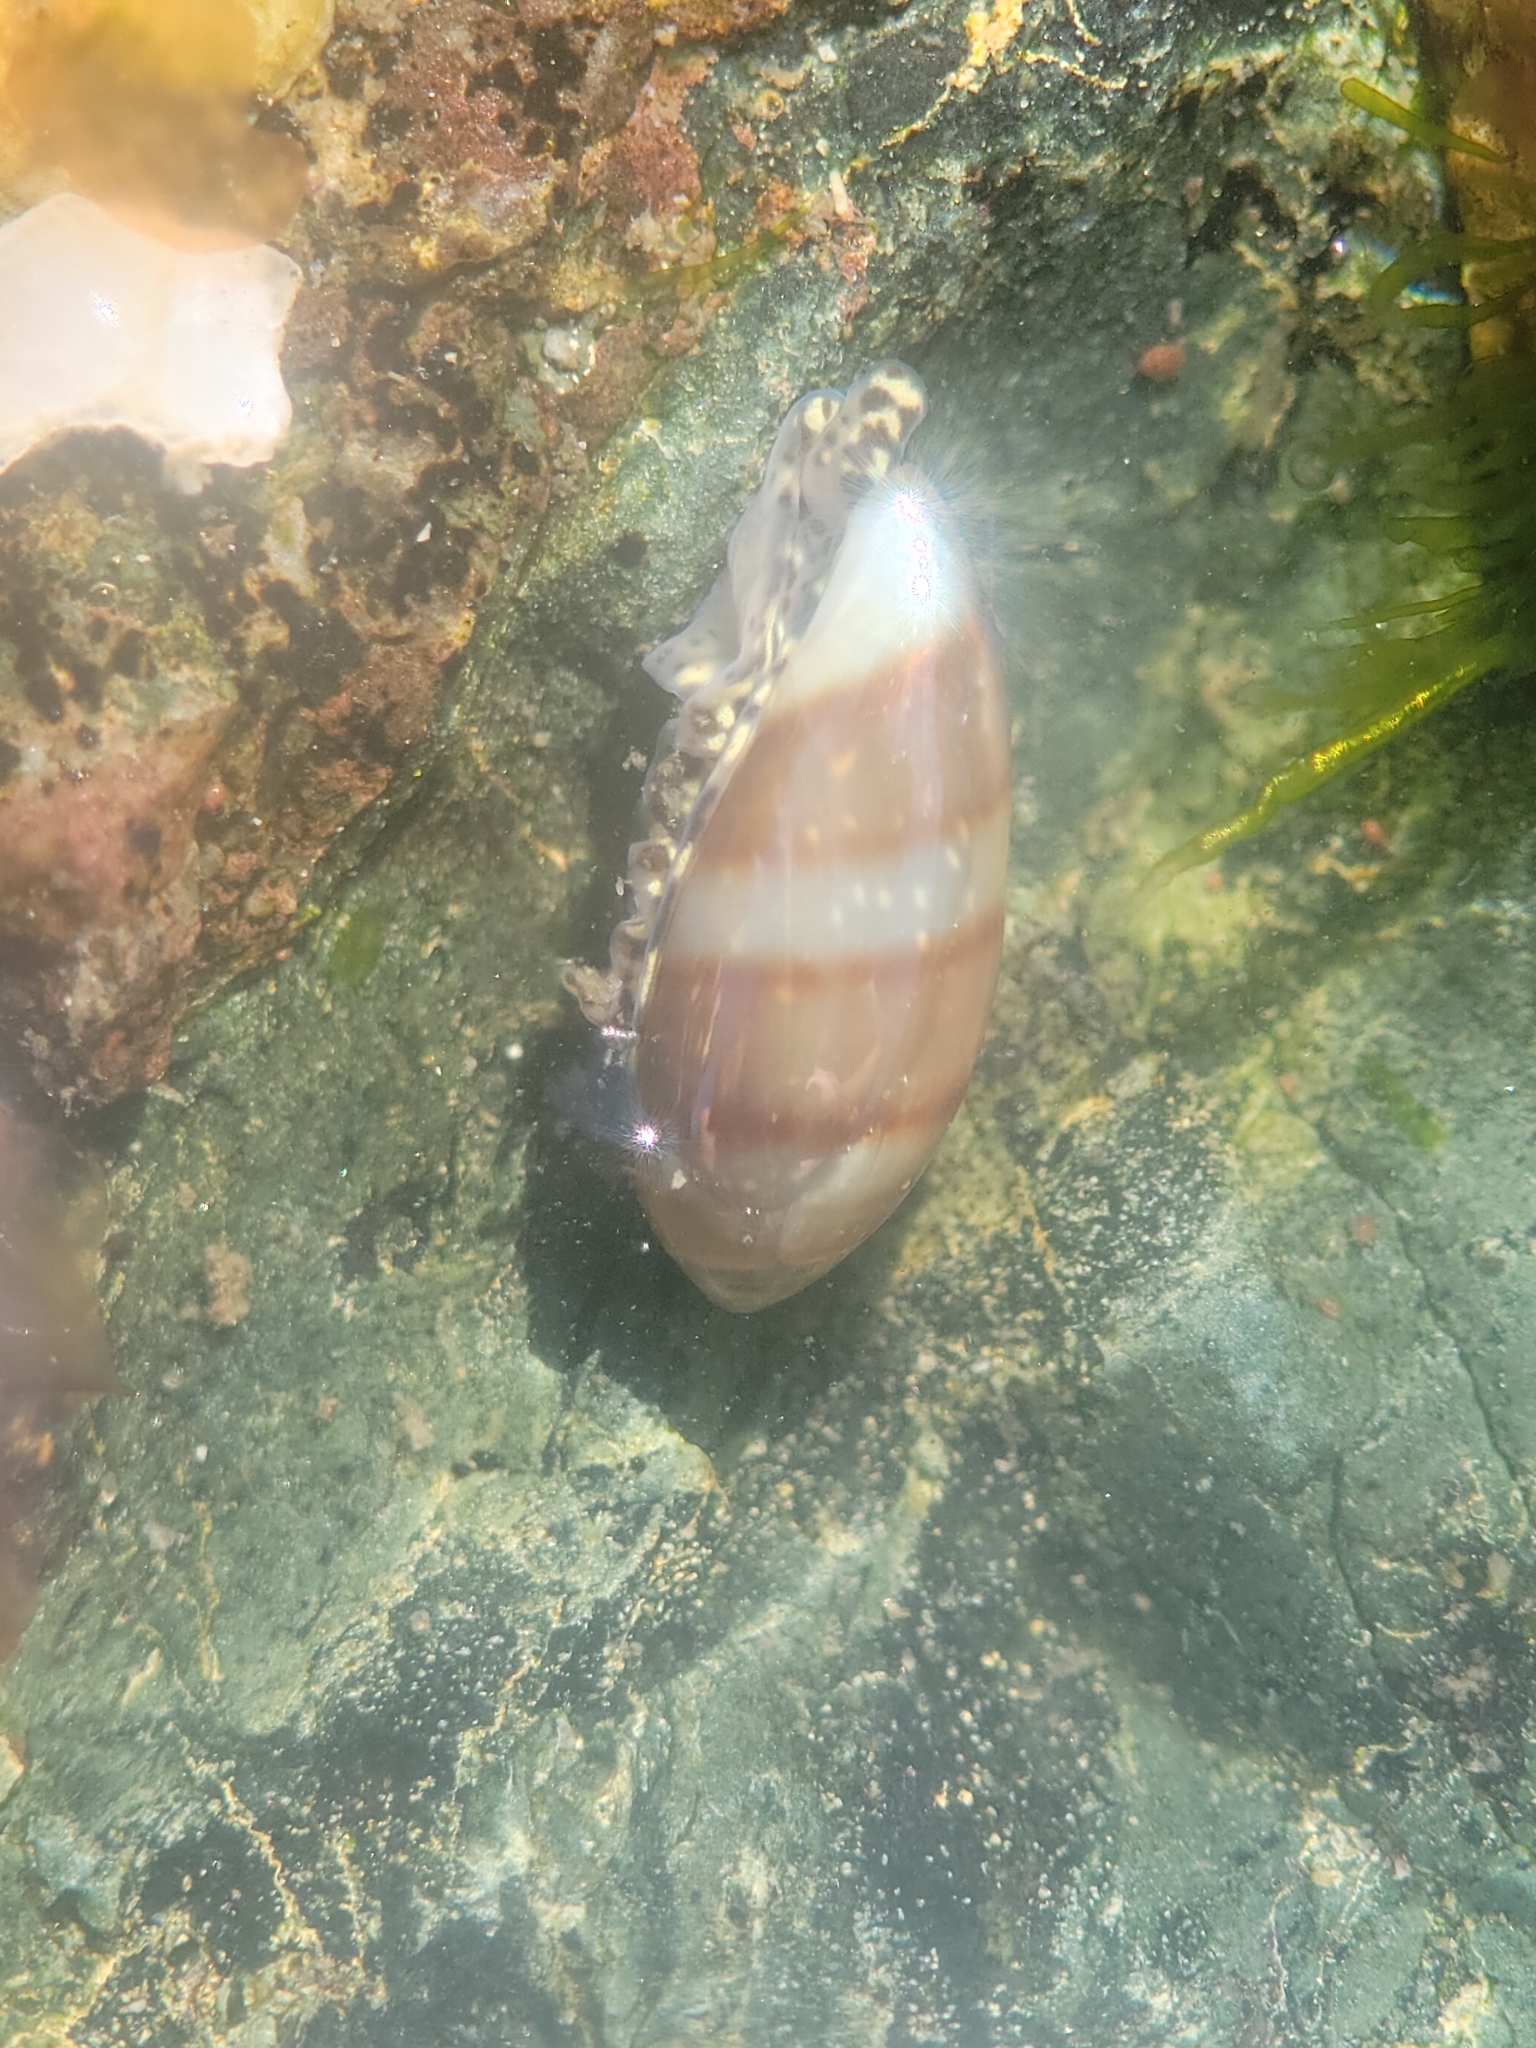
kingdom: Animalia
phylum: Mollusca
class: Gastropoda
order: Neogastropoda
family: Marginellidae
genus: Volvarina
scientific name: Volvarina taeniolata
